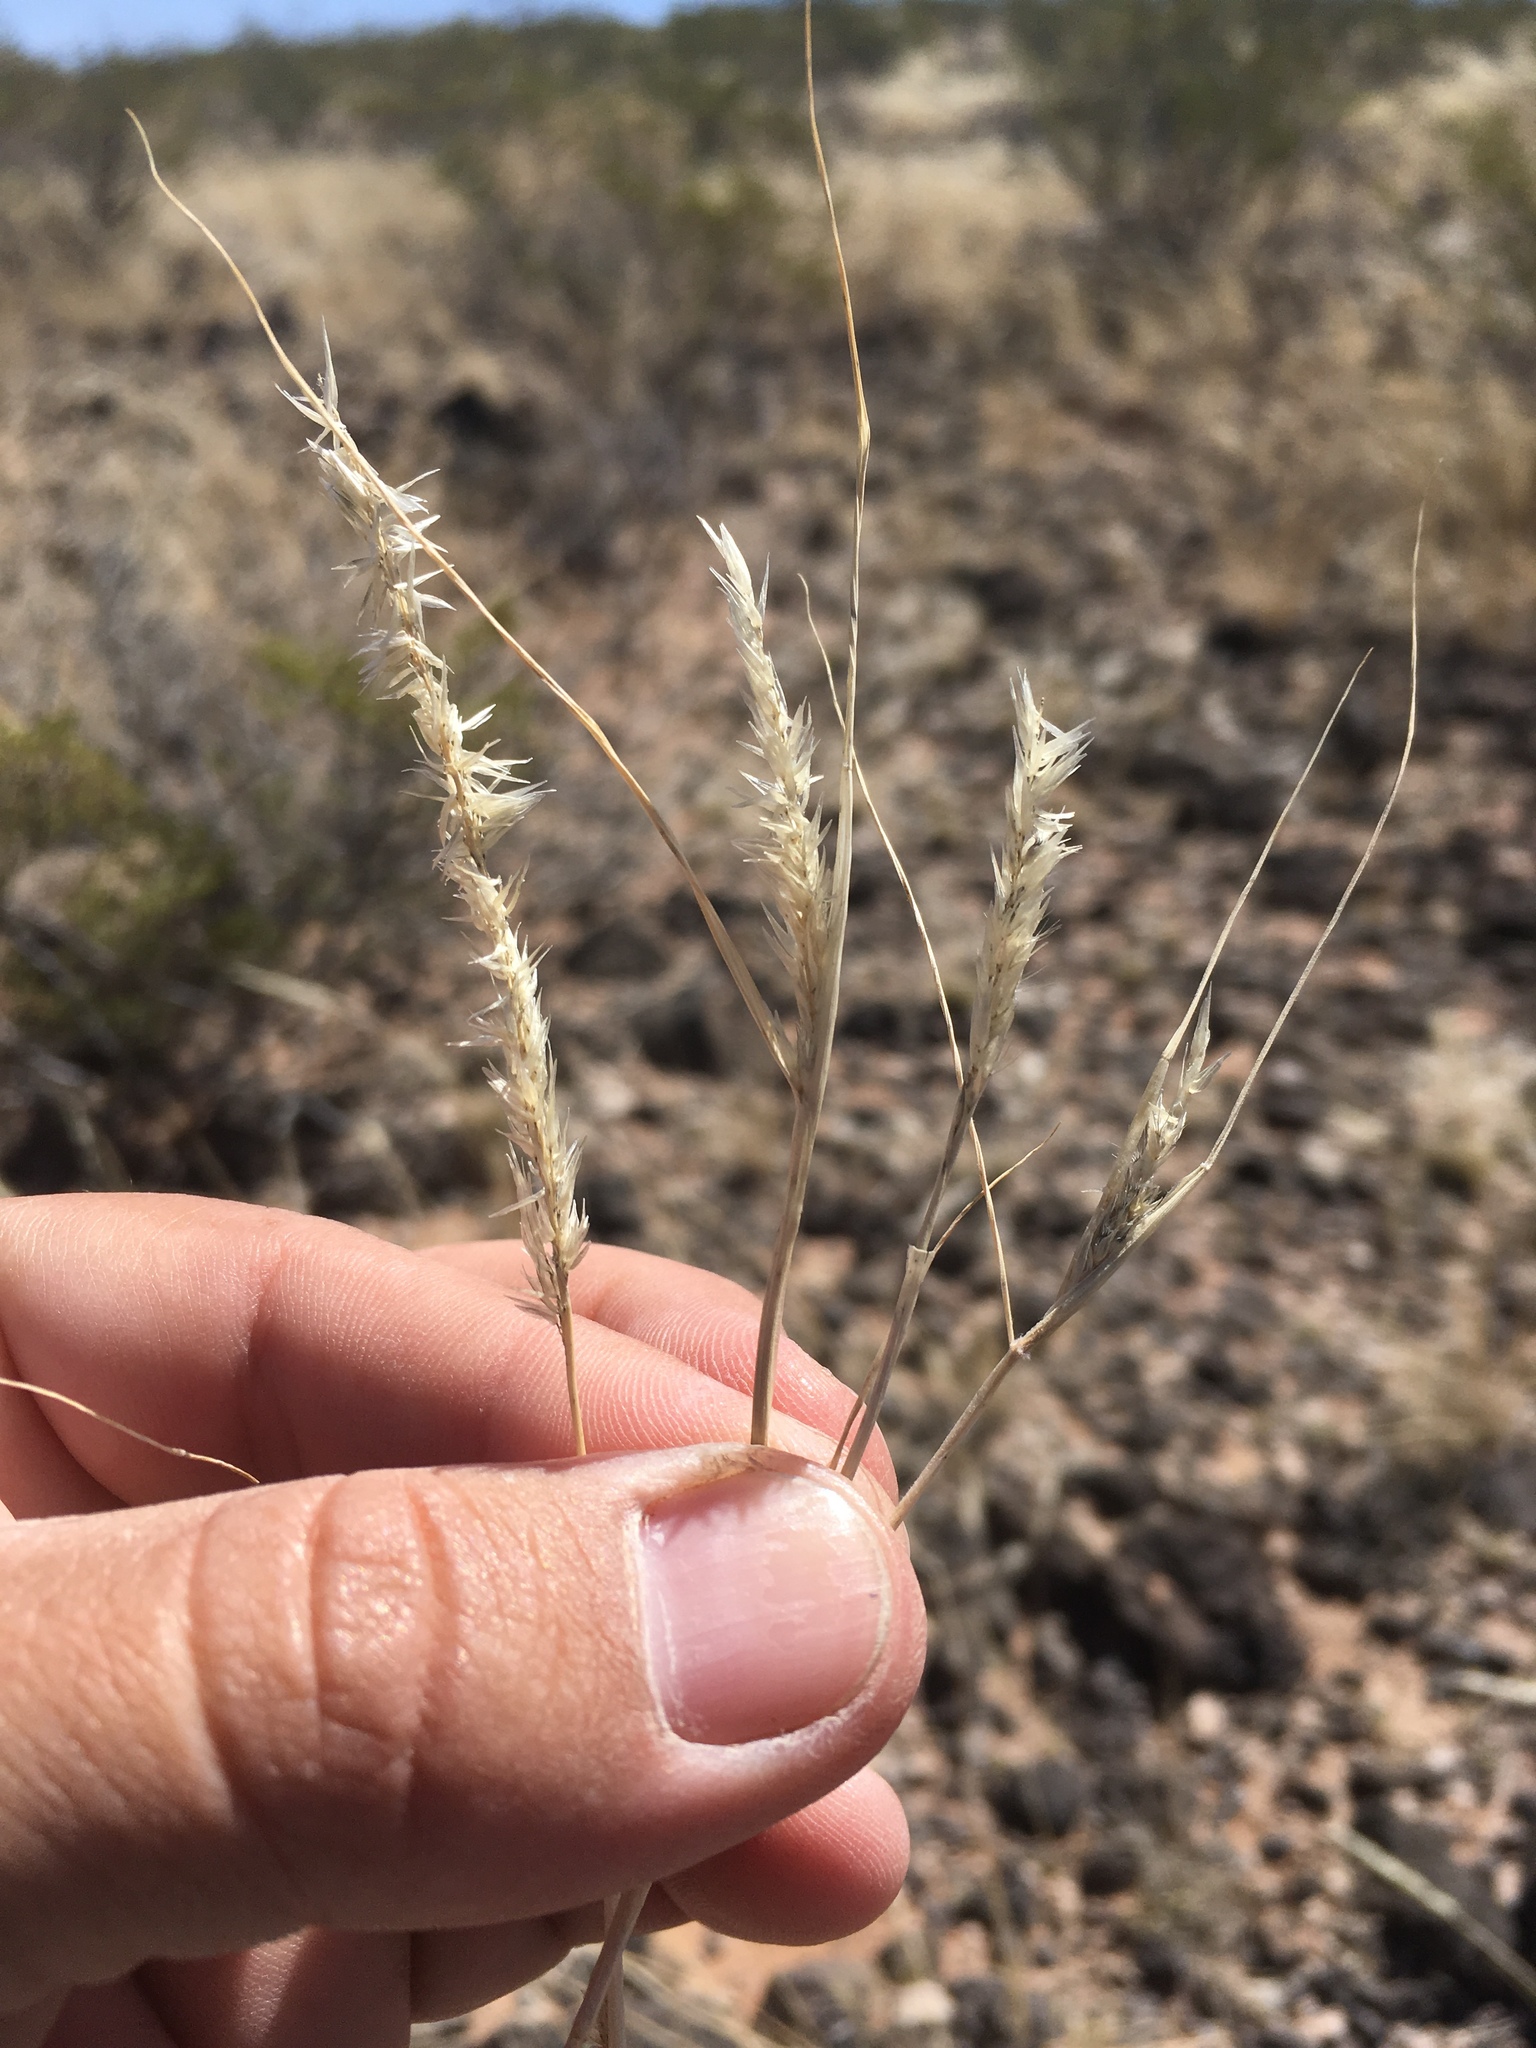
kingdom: Plantae
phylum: Tracheophyta
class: Liliopsida
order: Poales
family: Poaceae
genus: Enneapogon
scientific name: Enneapogon desvauxii
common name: Feather pappus grass
